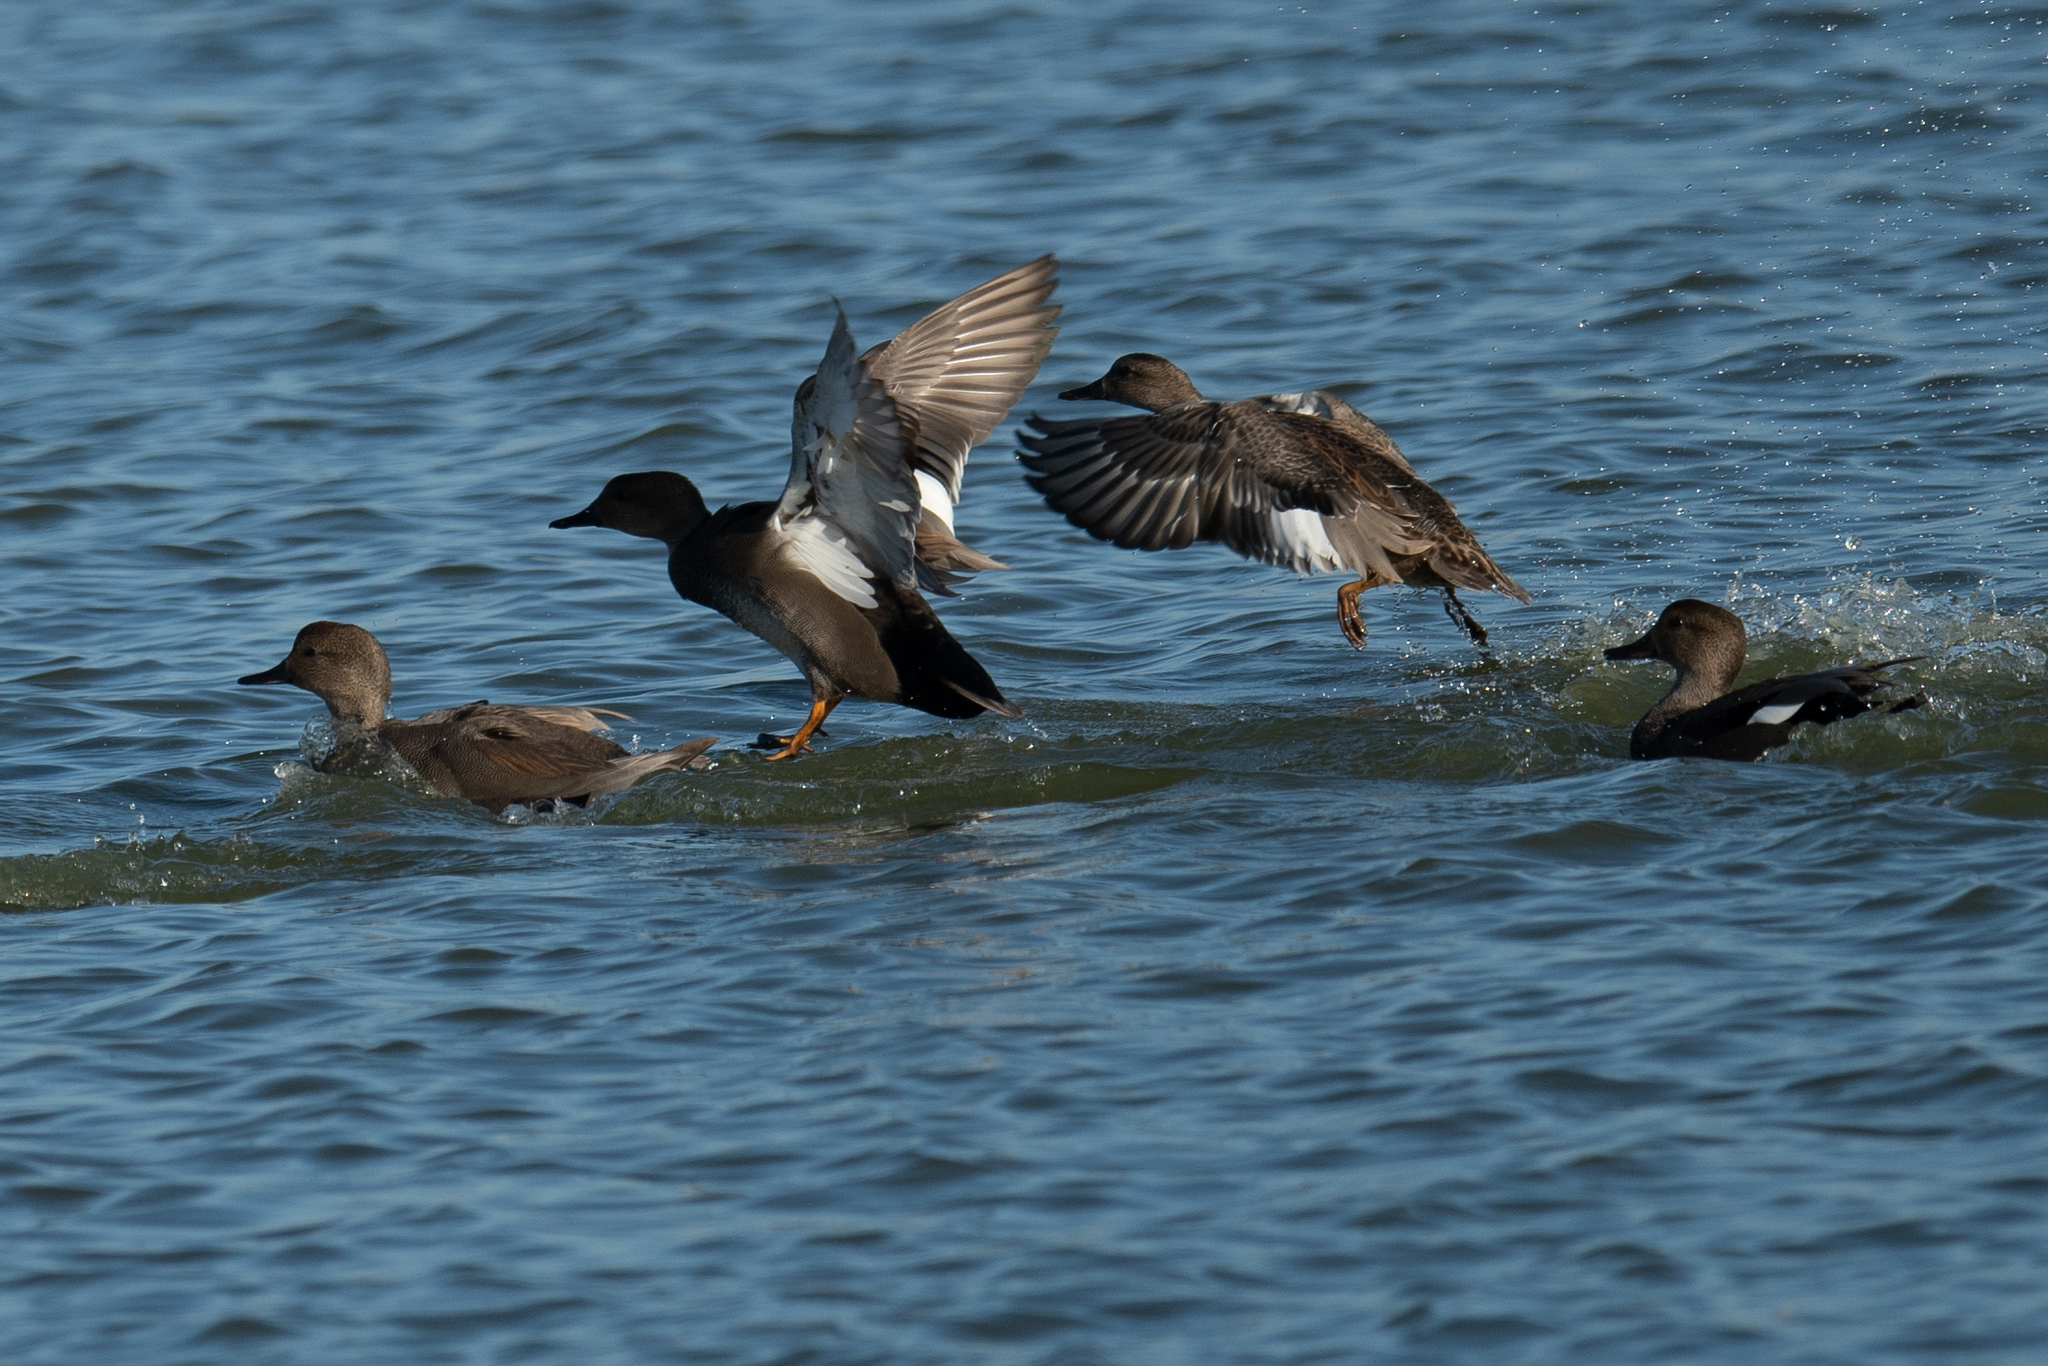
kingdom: Animalia
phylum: Chordata
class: Aves
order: Anseriformes
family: Anatidae
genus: Mareca
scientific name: Mareca strepera
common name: Gadwall
